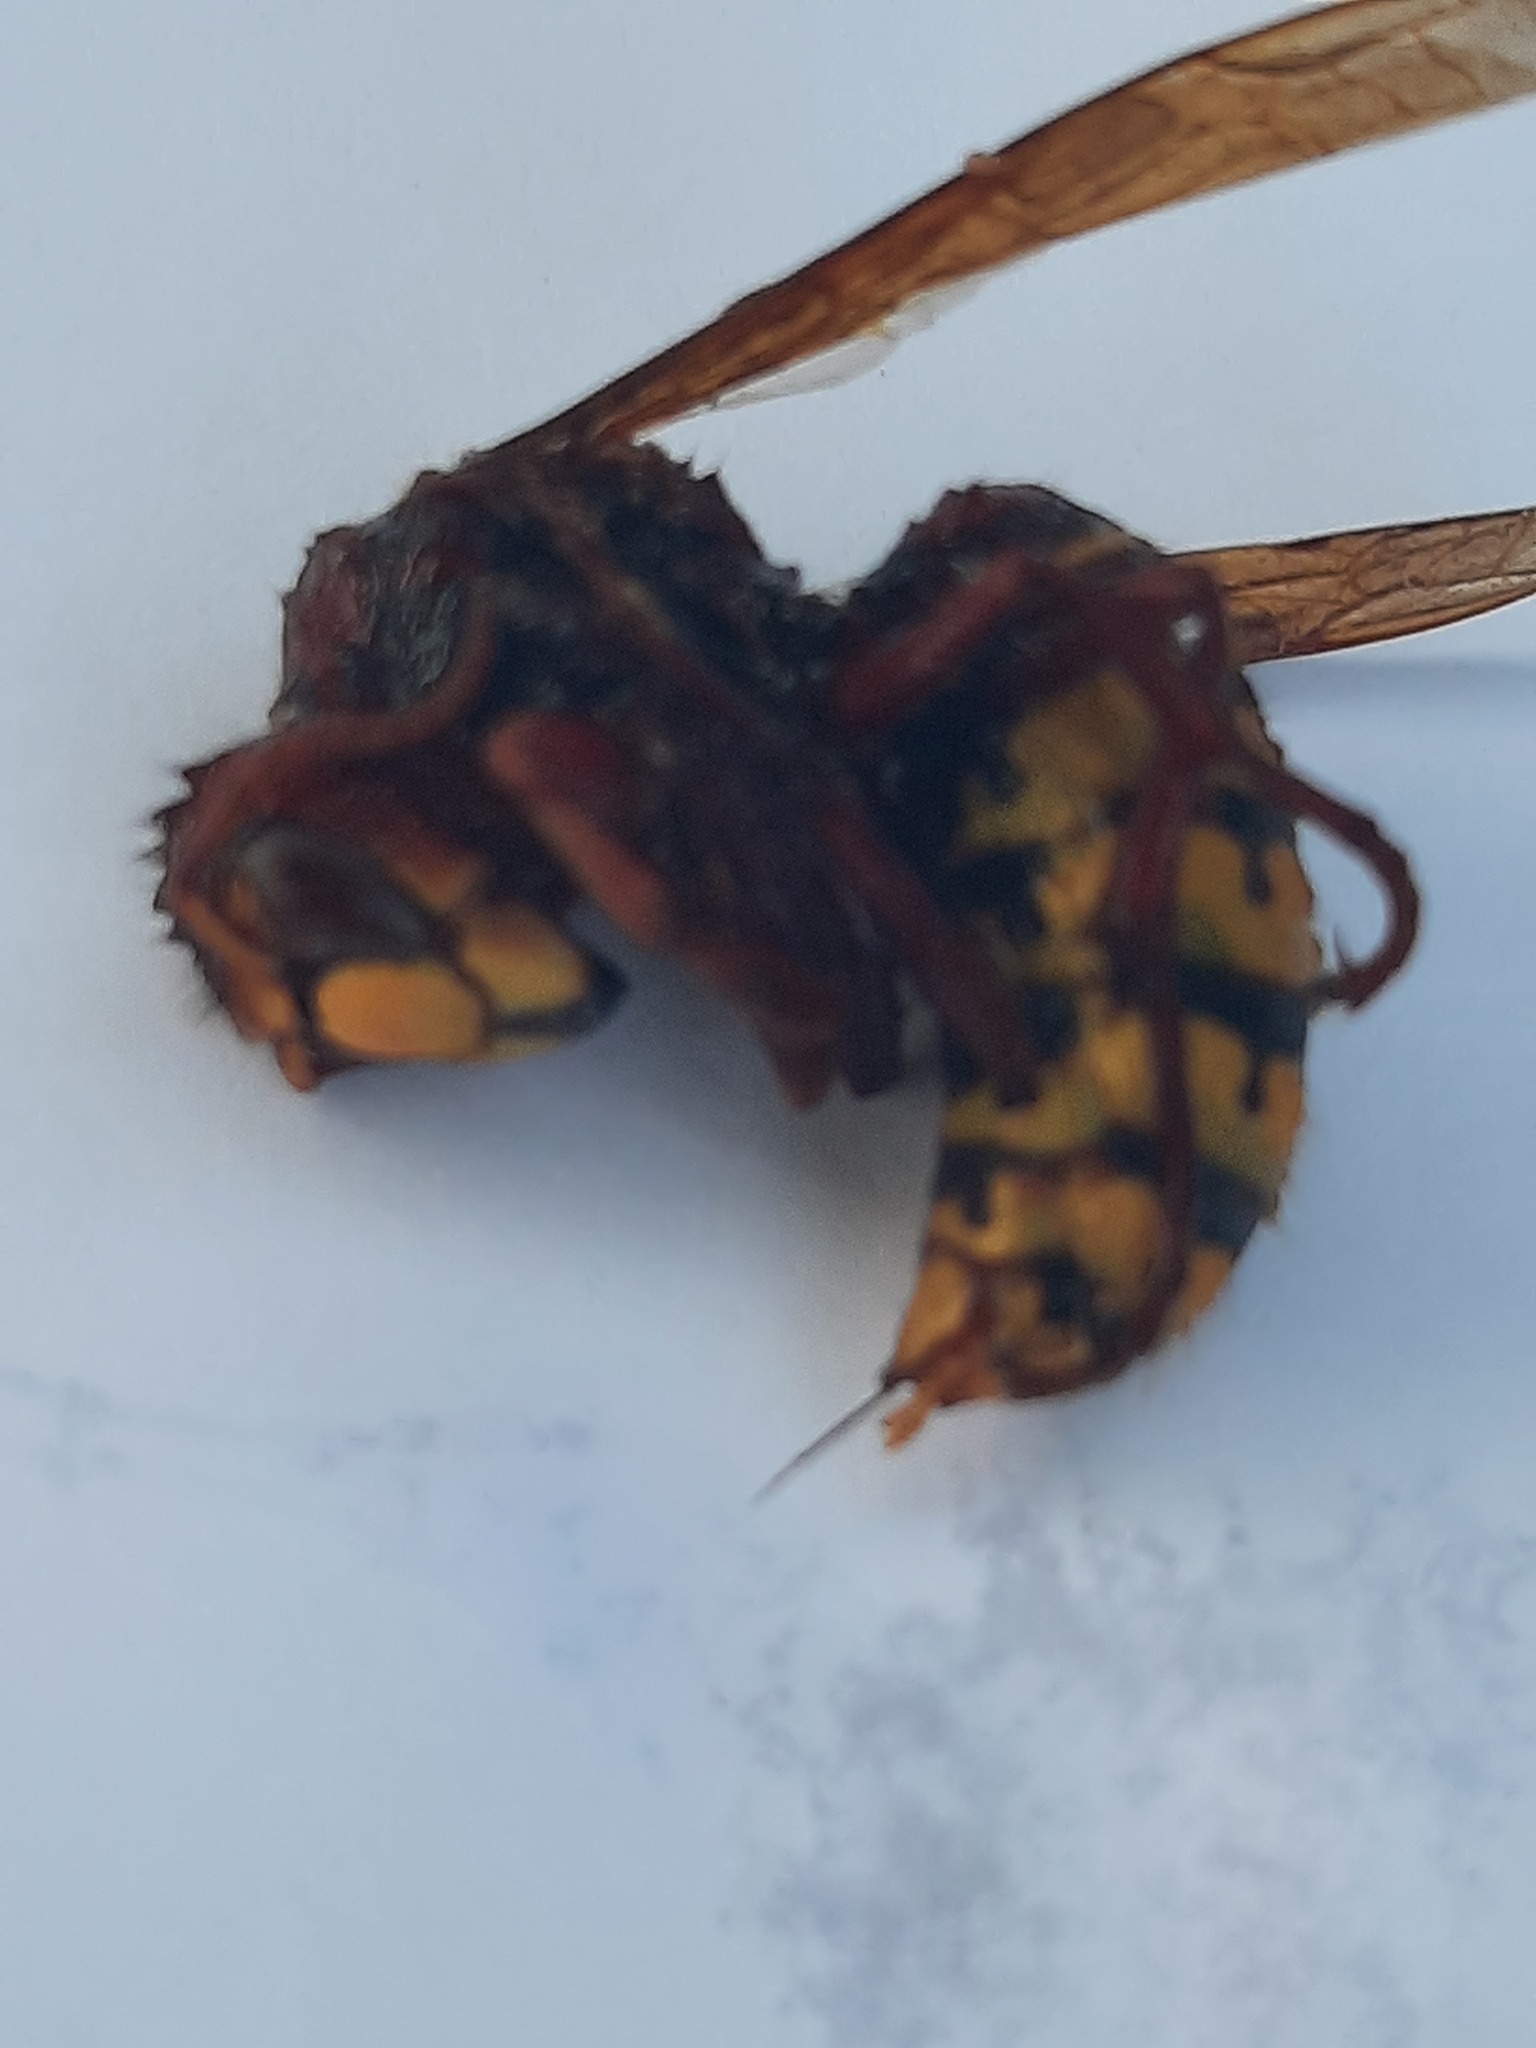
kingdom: Animalia
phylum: Arthropoda
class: Insecta
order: Hymenoptera
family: Vespidae
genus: Vespa
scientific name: Vespa crabro
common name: Hornet
